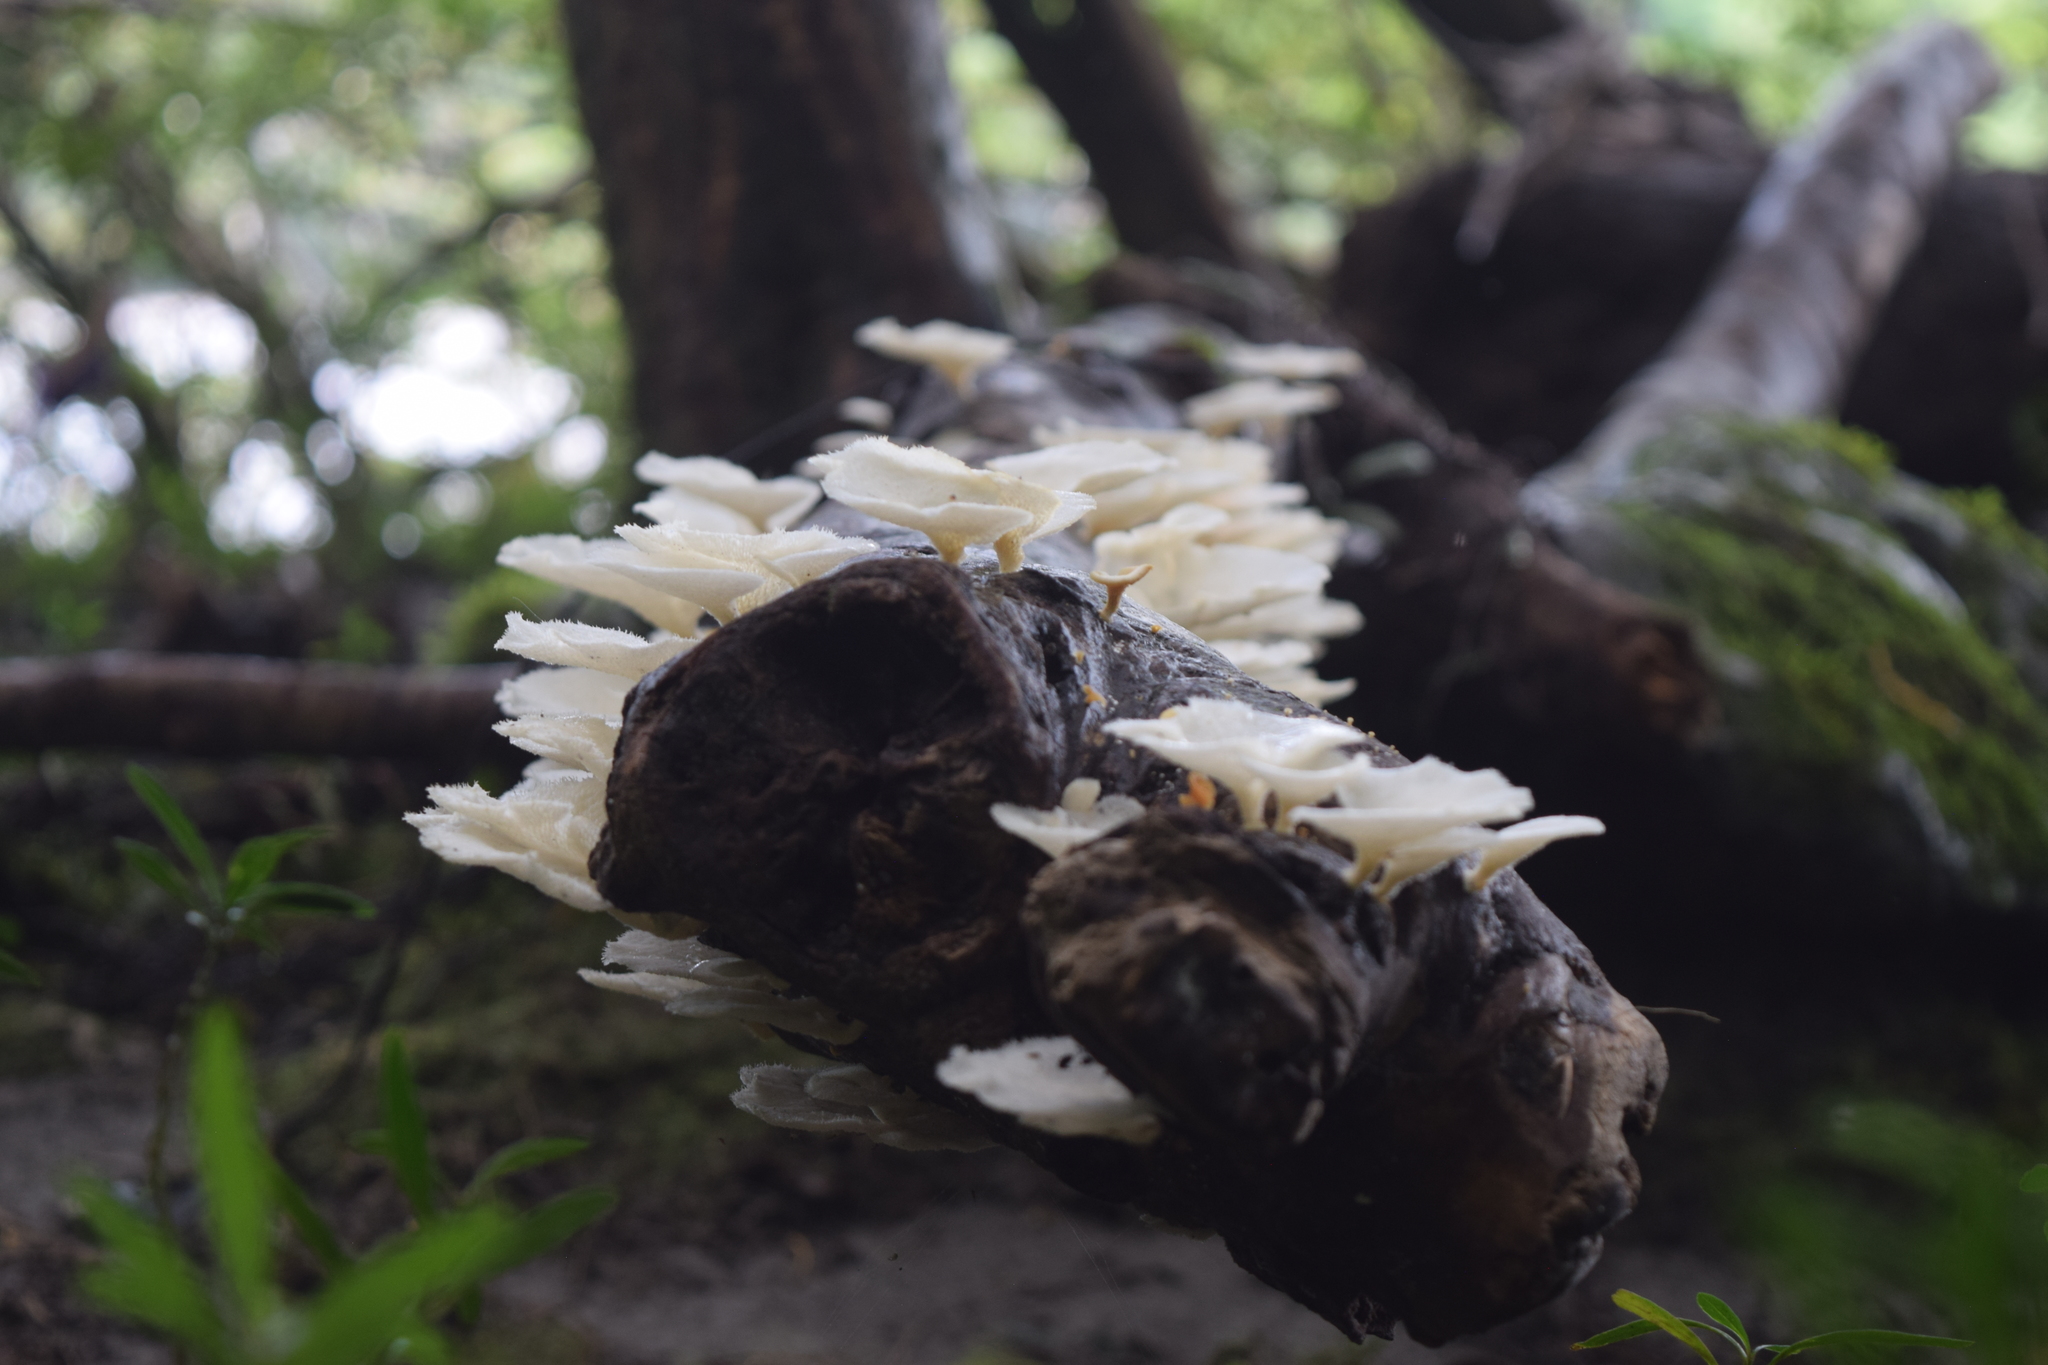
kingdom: Fungi
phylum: Basidiomycota
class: Agaricomycetes
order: Polyporales
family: Polyporaceae
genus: Favolus
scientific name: Favolus tenuiculus
